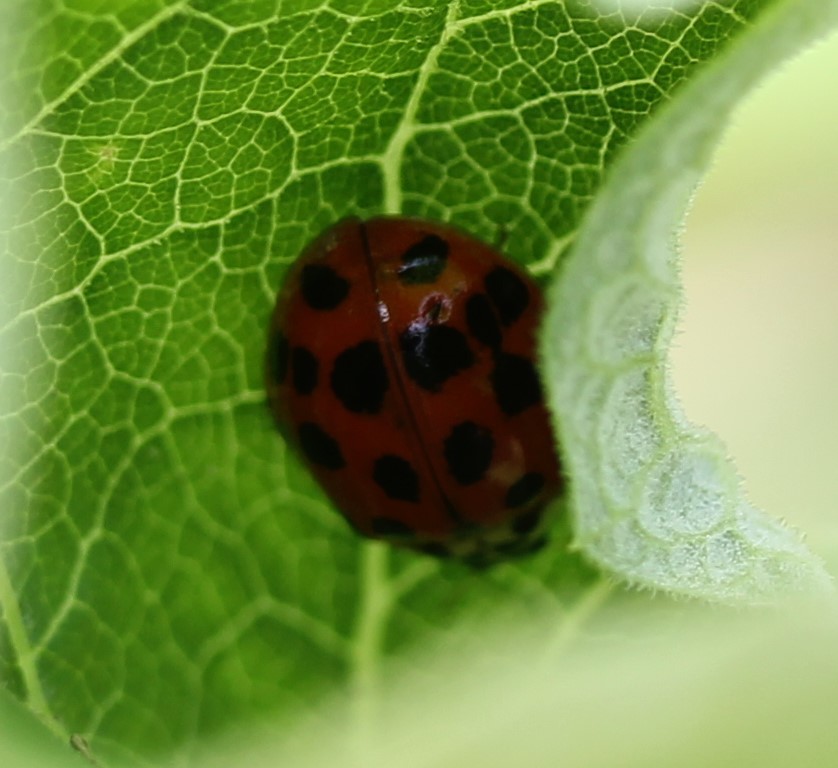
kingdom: Animalia
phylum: Arthropoda
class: Insecta
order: Coleoptera
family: Coccinellidae
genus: Harmonia
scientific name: Harmonia axyridis
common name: Harlequin ladybird
